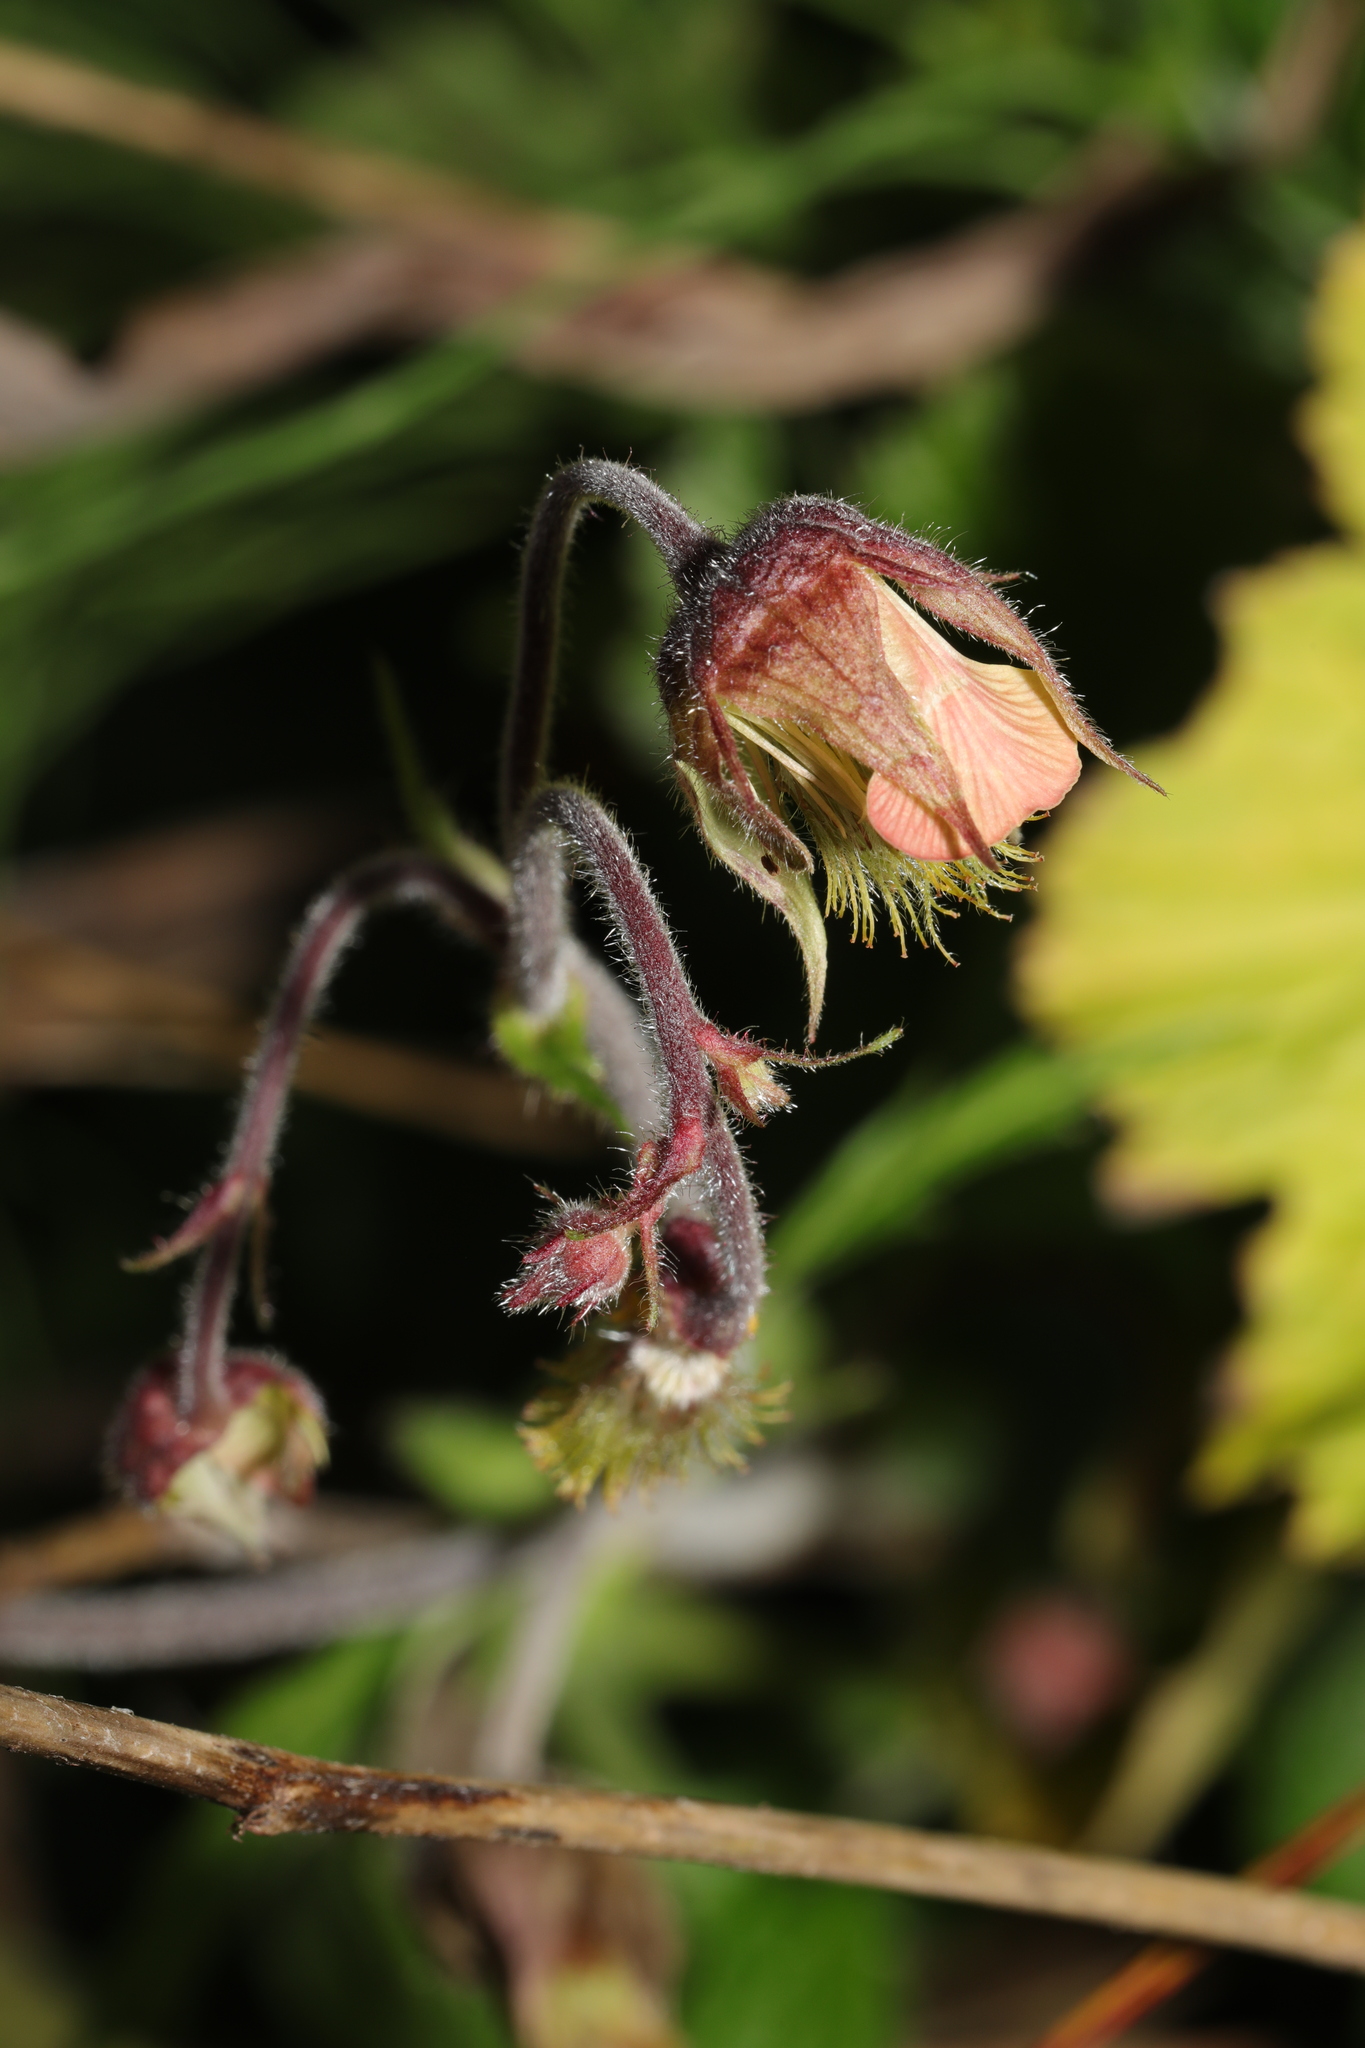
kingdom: Plantae
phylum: Tracheophyta
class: Magnoliopsida
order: Rosales
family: Rosaceae
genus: Geum
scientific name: Geum rivale
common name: Water avens
